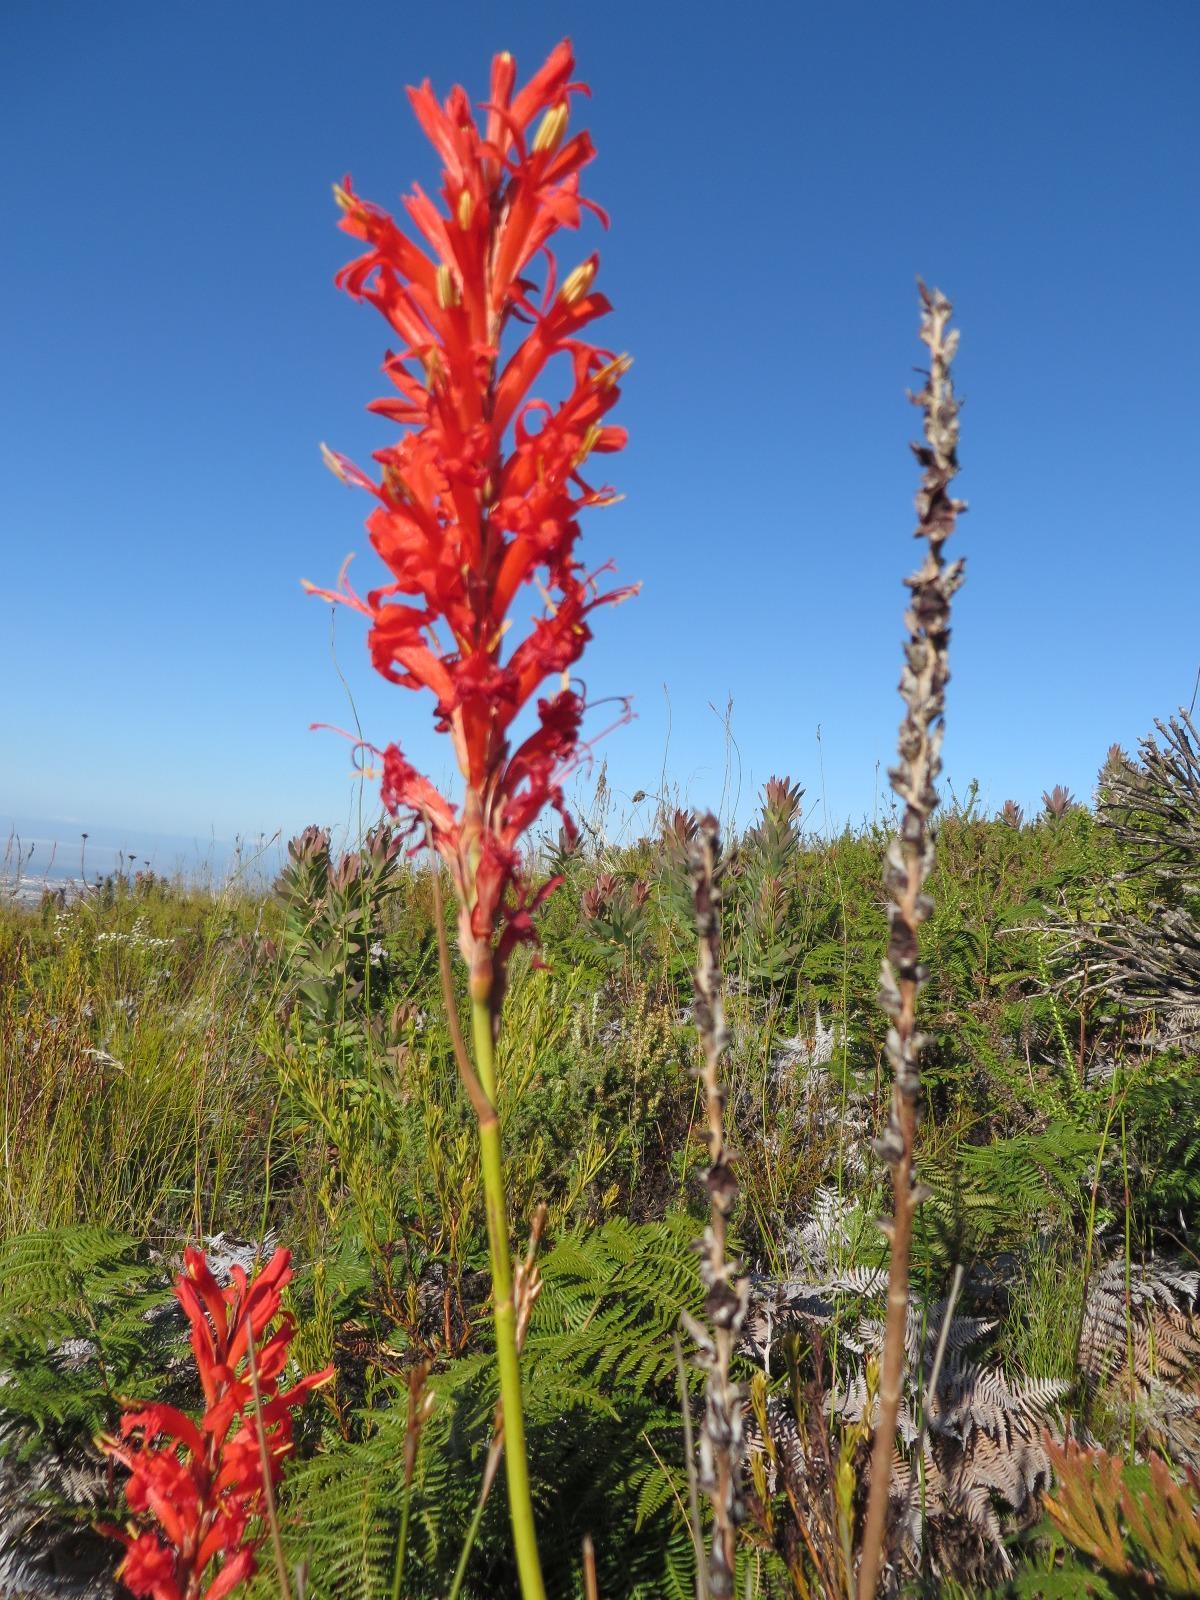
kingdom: Plantae
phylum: Tracheophyta
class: Liliopsida
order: Asparagales
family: Iridaceae
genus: Tritoniopsis
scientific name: Tritoniopsis triticea
